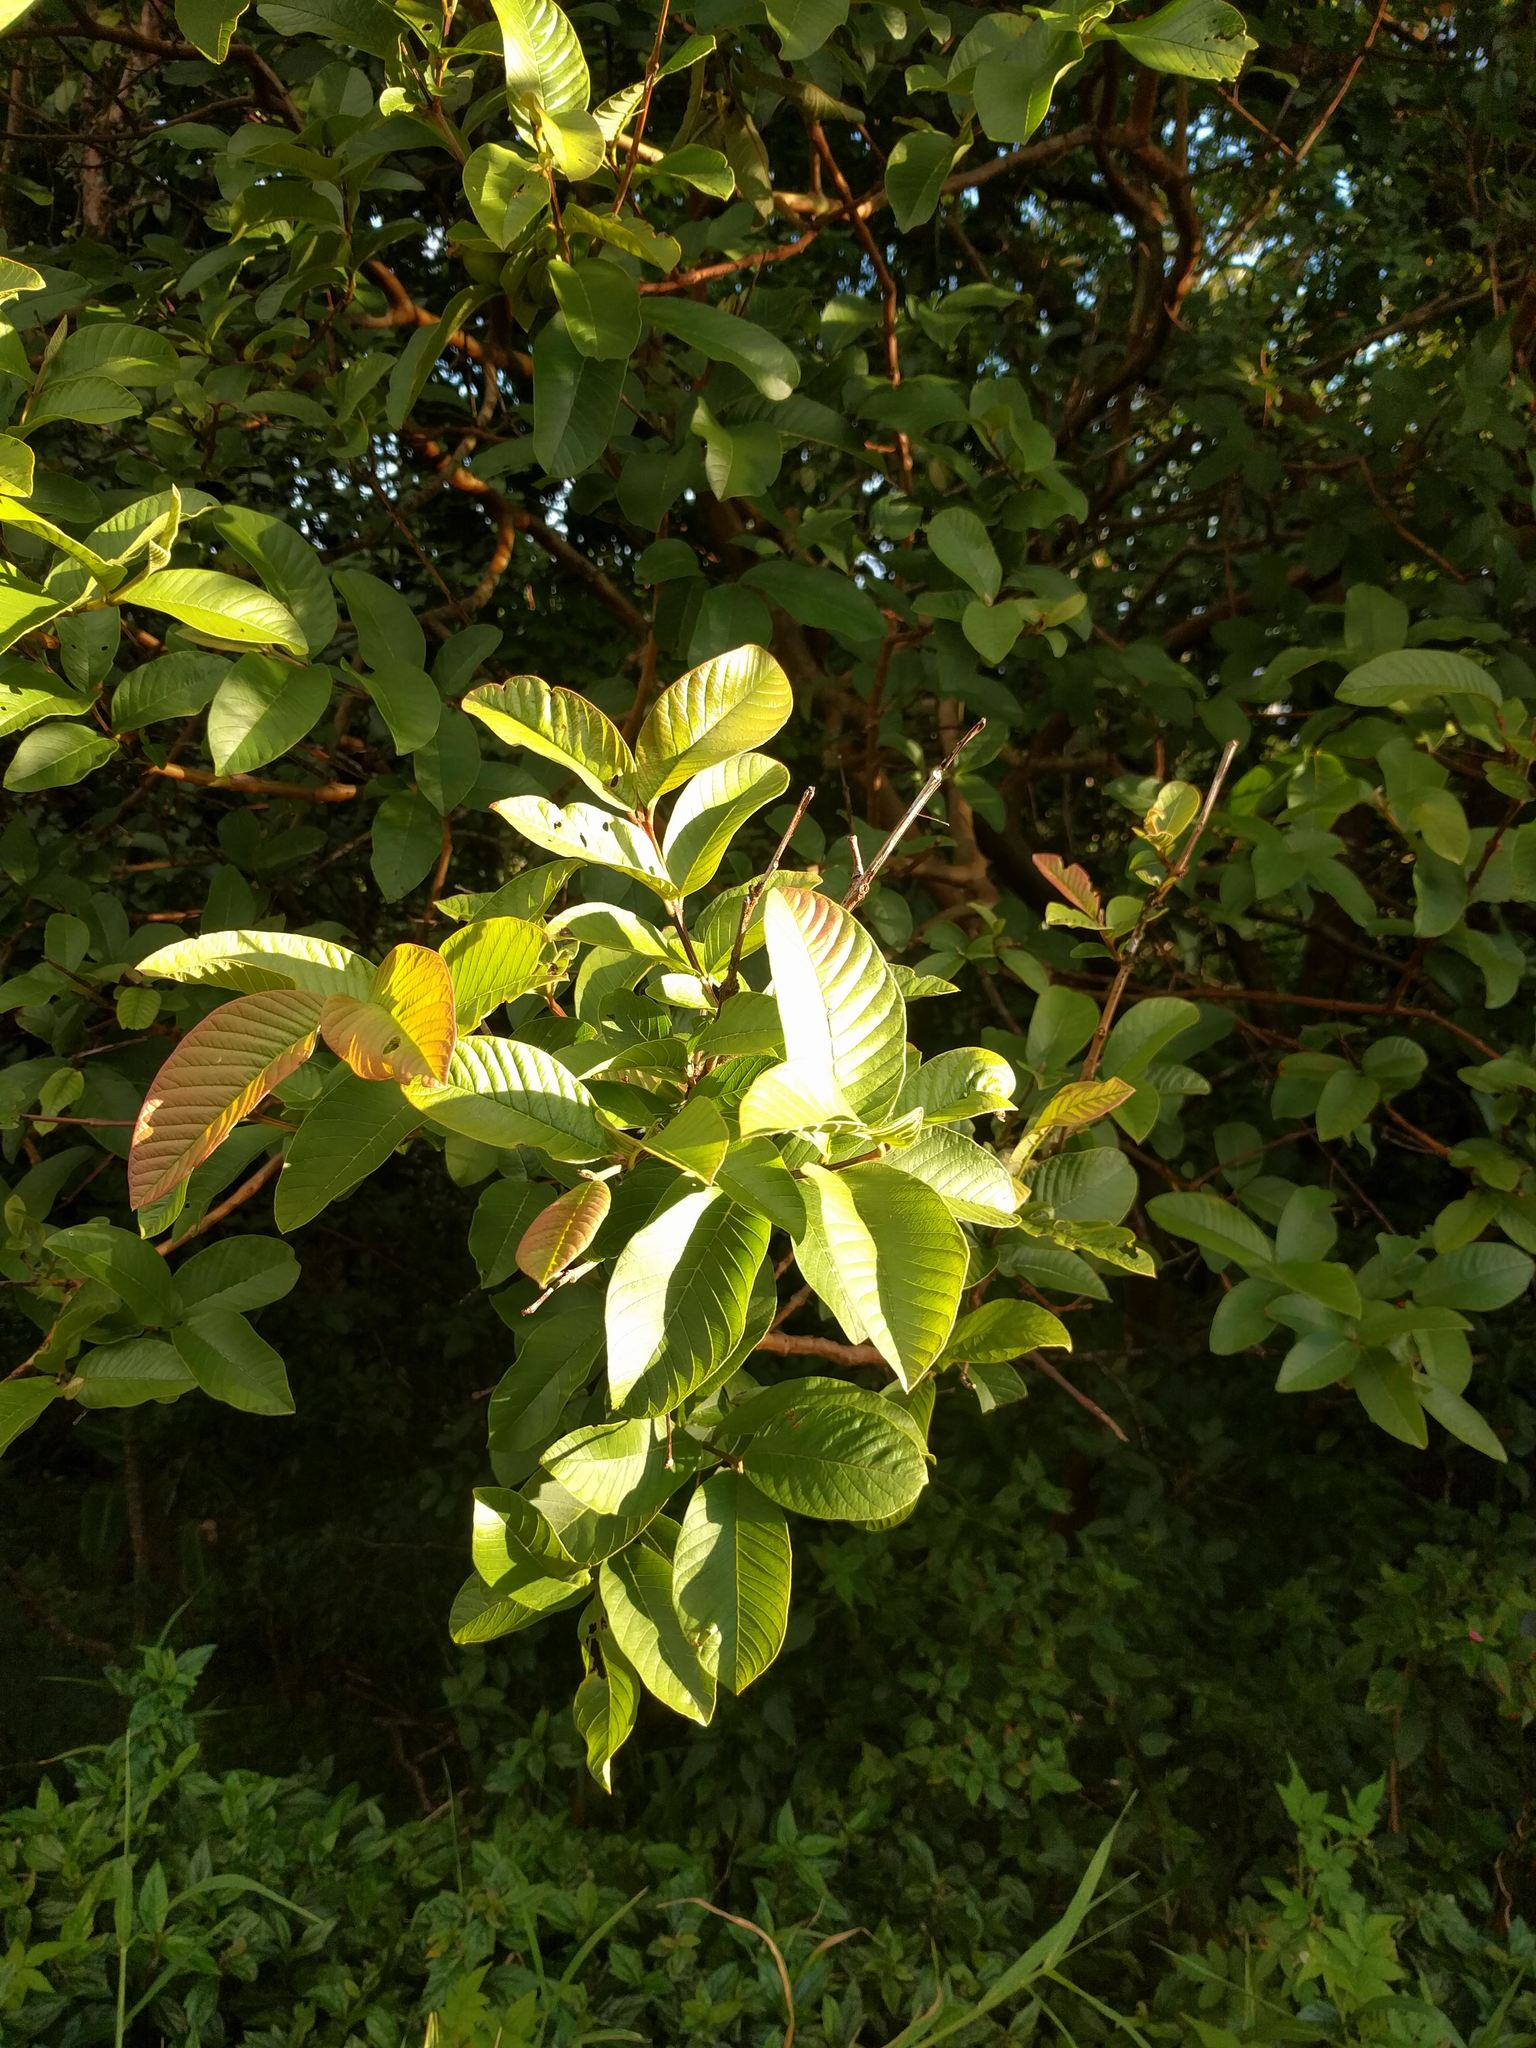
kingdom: Plantae
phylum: Tracheophyta
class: Magnoliopsida
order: Myrtales
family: Myrtaceae
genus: Psidium
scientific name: Psidium guajava
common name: Guava
